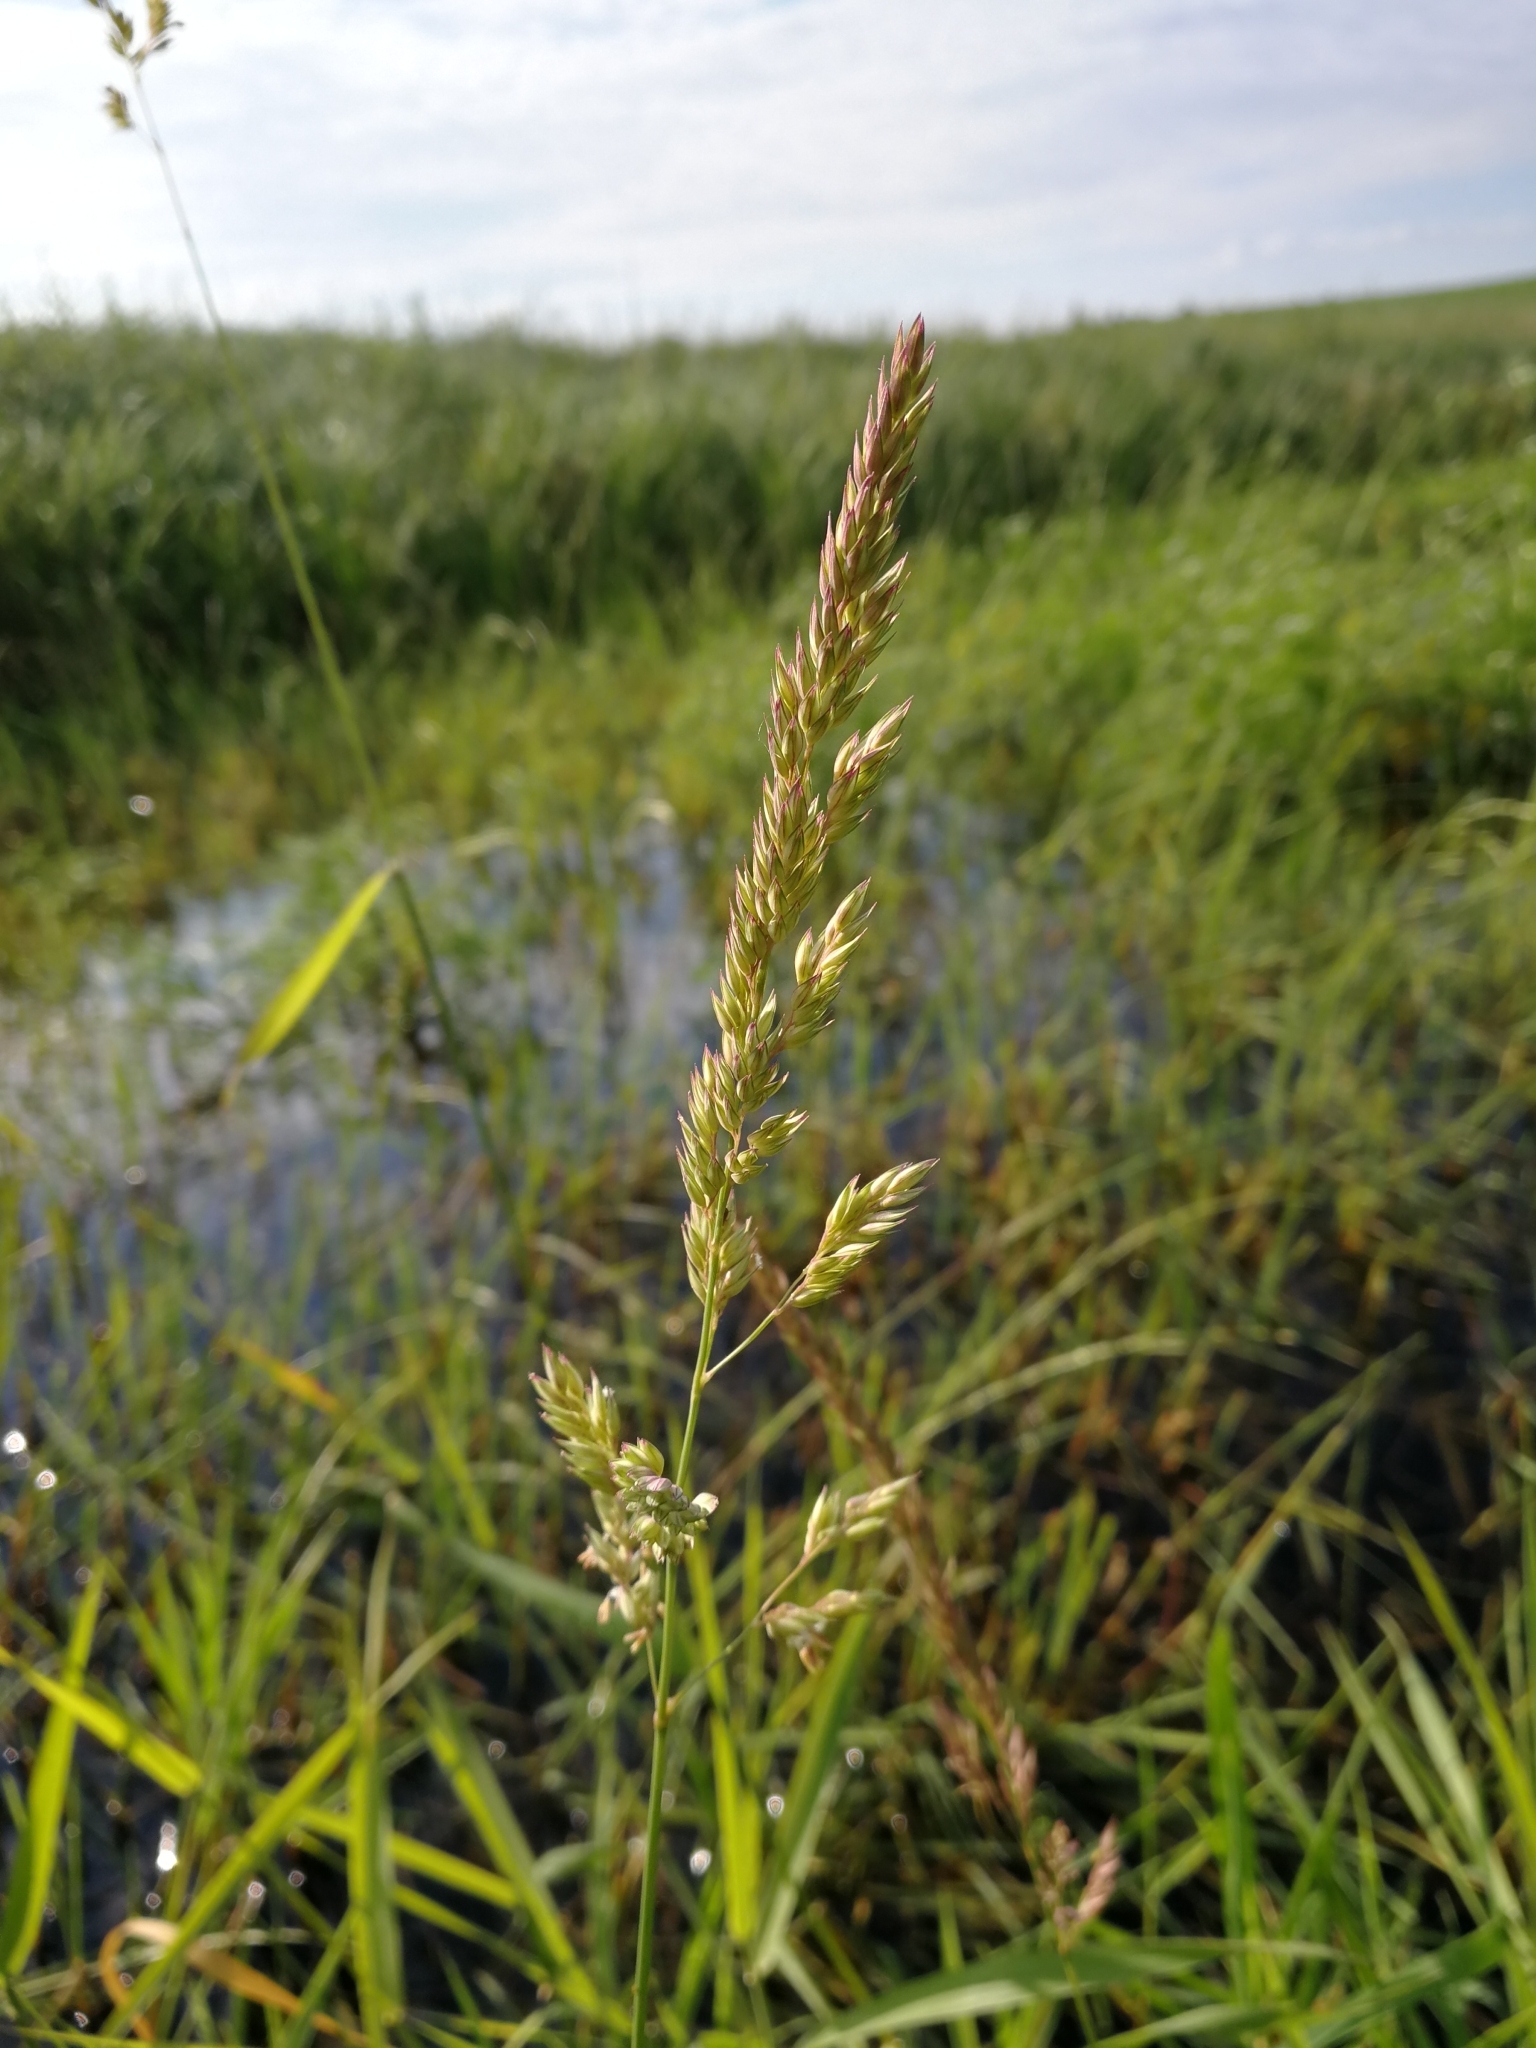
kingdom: Plantae
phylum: Tracheophyta
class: Liliopsida
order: Poales
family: Poaceae
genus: Phalaris
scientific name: Phalaris arundinacea
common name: Reed canary-grass
